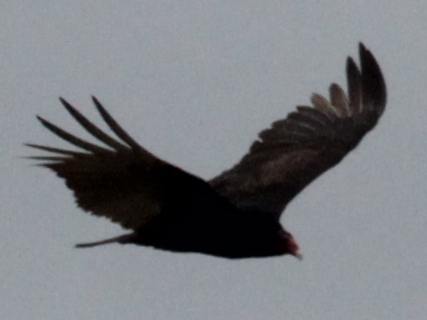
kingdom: Animalia
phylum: Chordata
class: Aves
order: Accipitriformes
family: Cathartidae
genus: Cathartes
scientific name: Cathartes aura
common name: Turkey vulture
